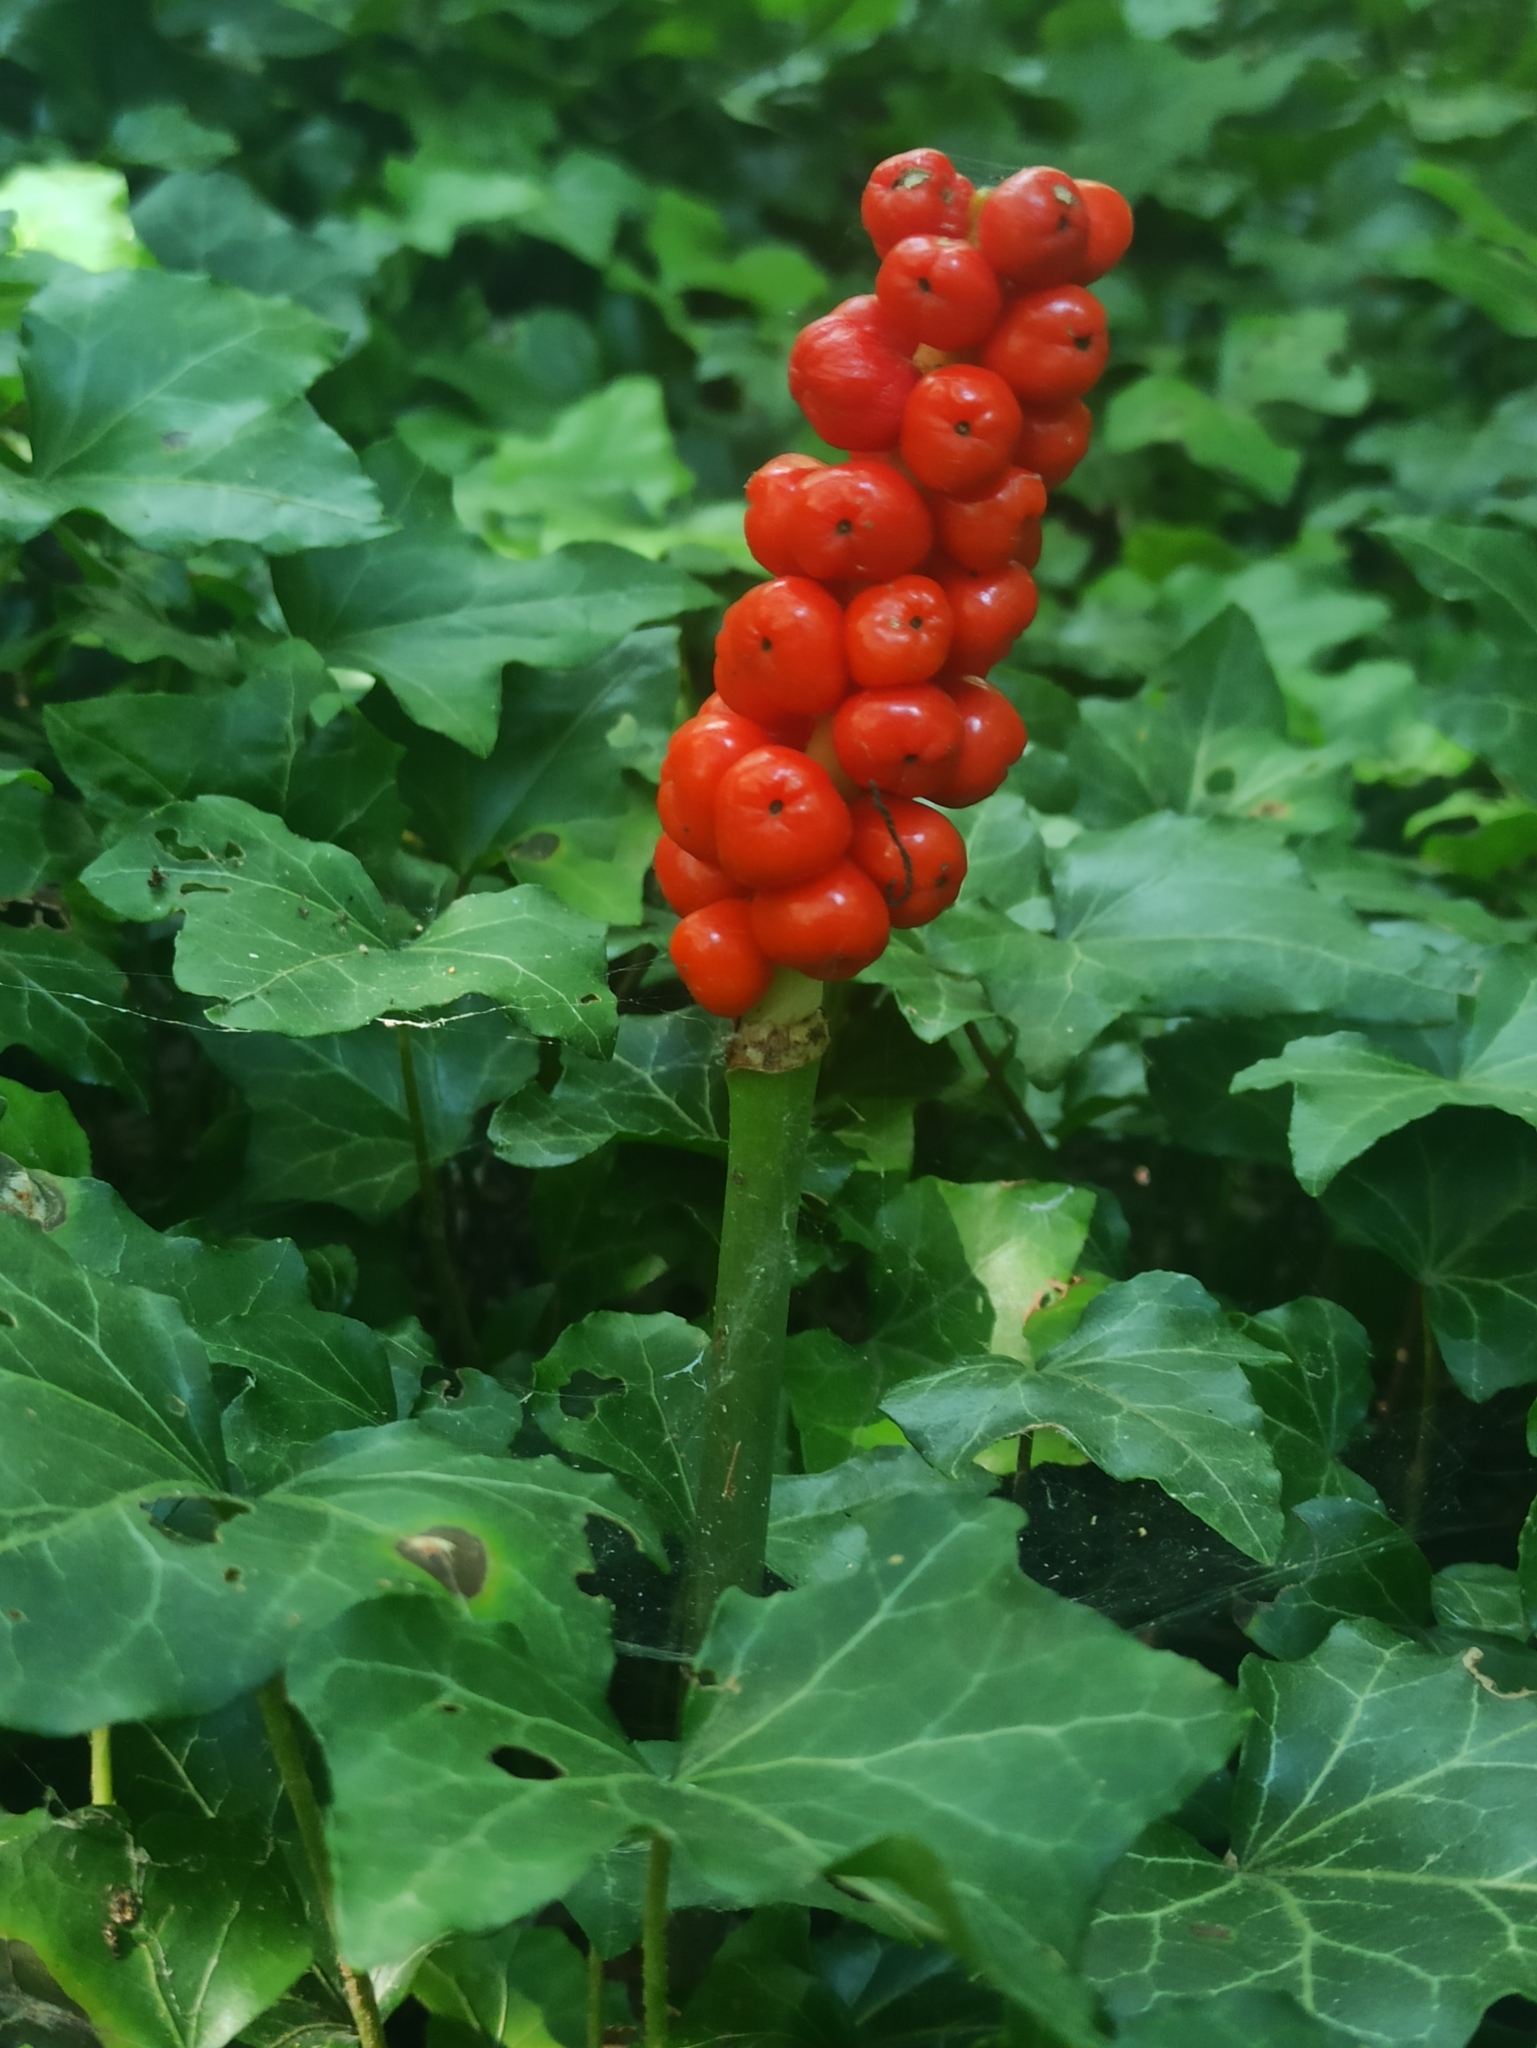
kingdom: Plantae
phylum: Tracheophyta
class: Liliopsida
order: Alismatales
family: Araceae
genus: Arum
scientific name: Arum maculatum
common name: Lords-and-ladies
